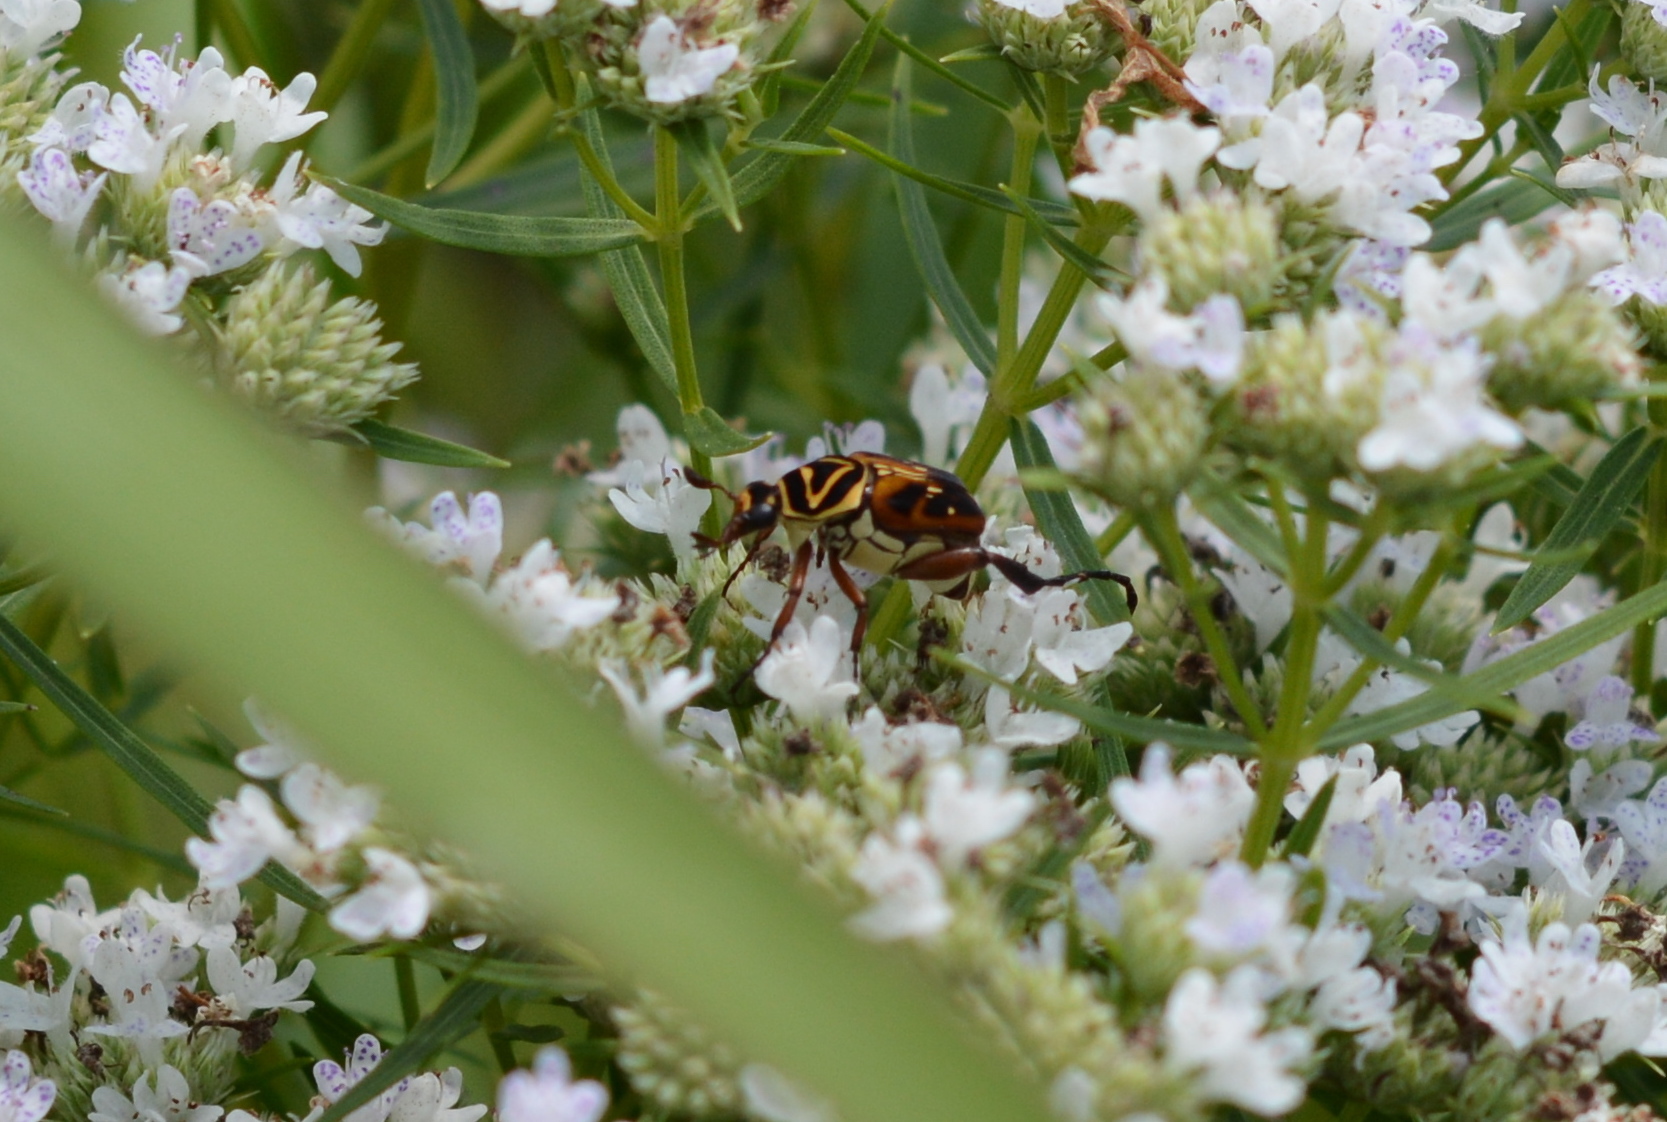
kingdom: Animalia
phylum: Arthropoda
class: Insecta
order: Coleoptera
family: Scarabaeidae
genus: Trigonopeltastes
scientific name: Trigonopeltastes delta
